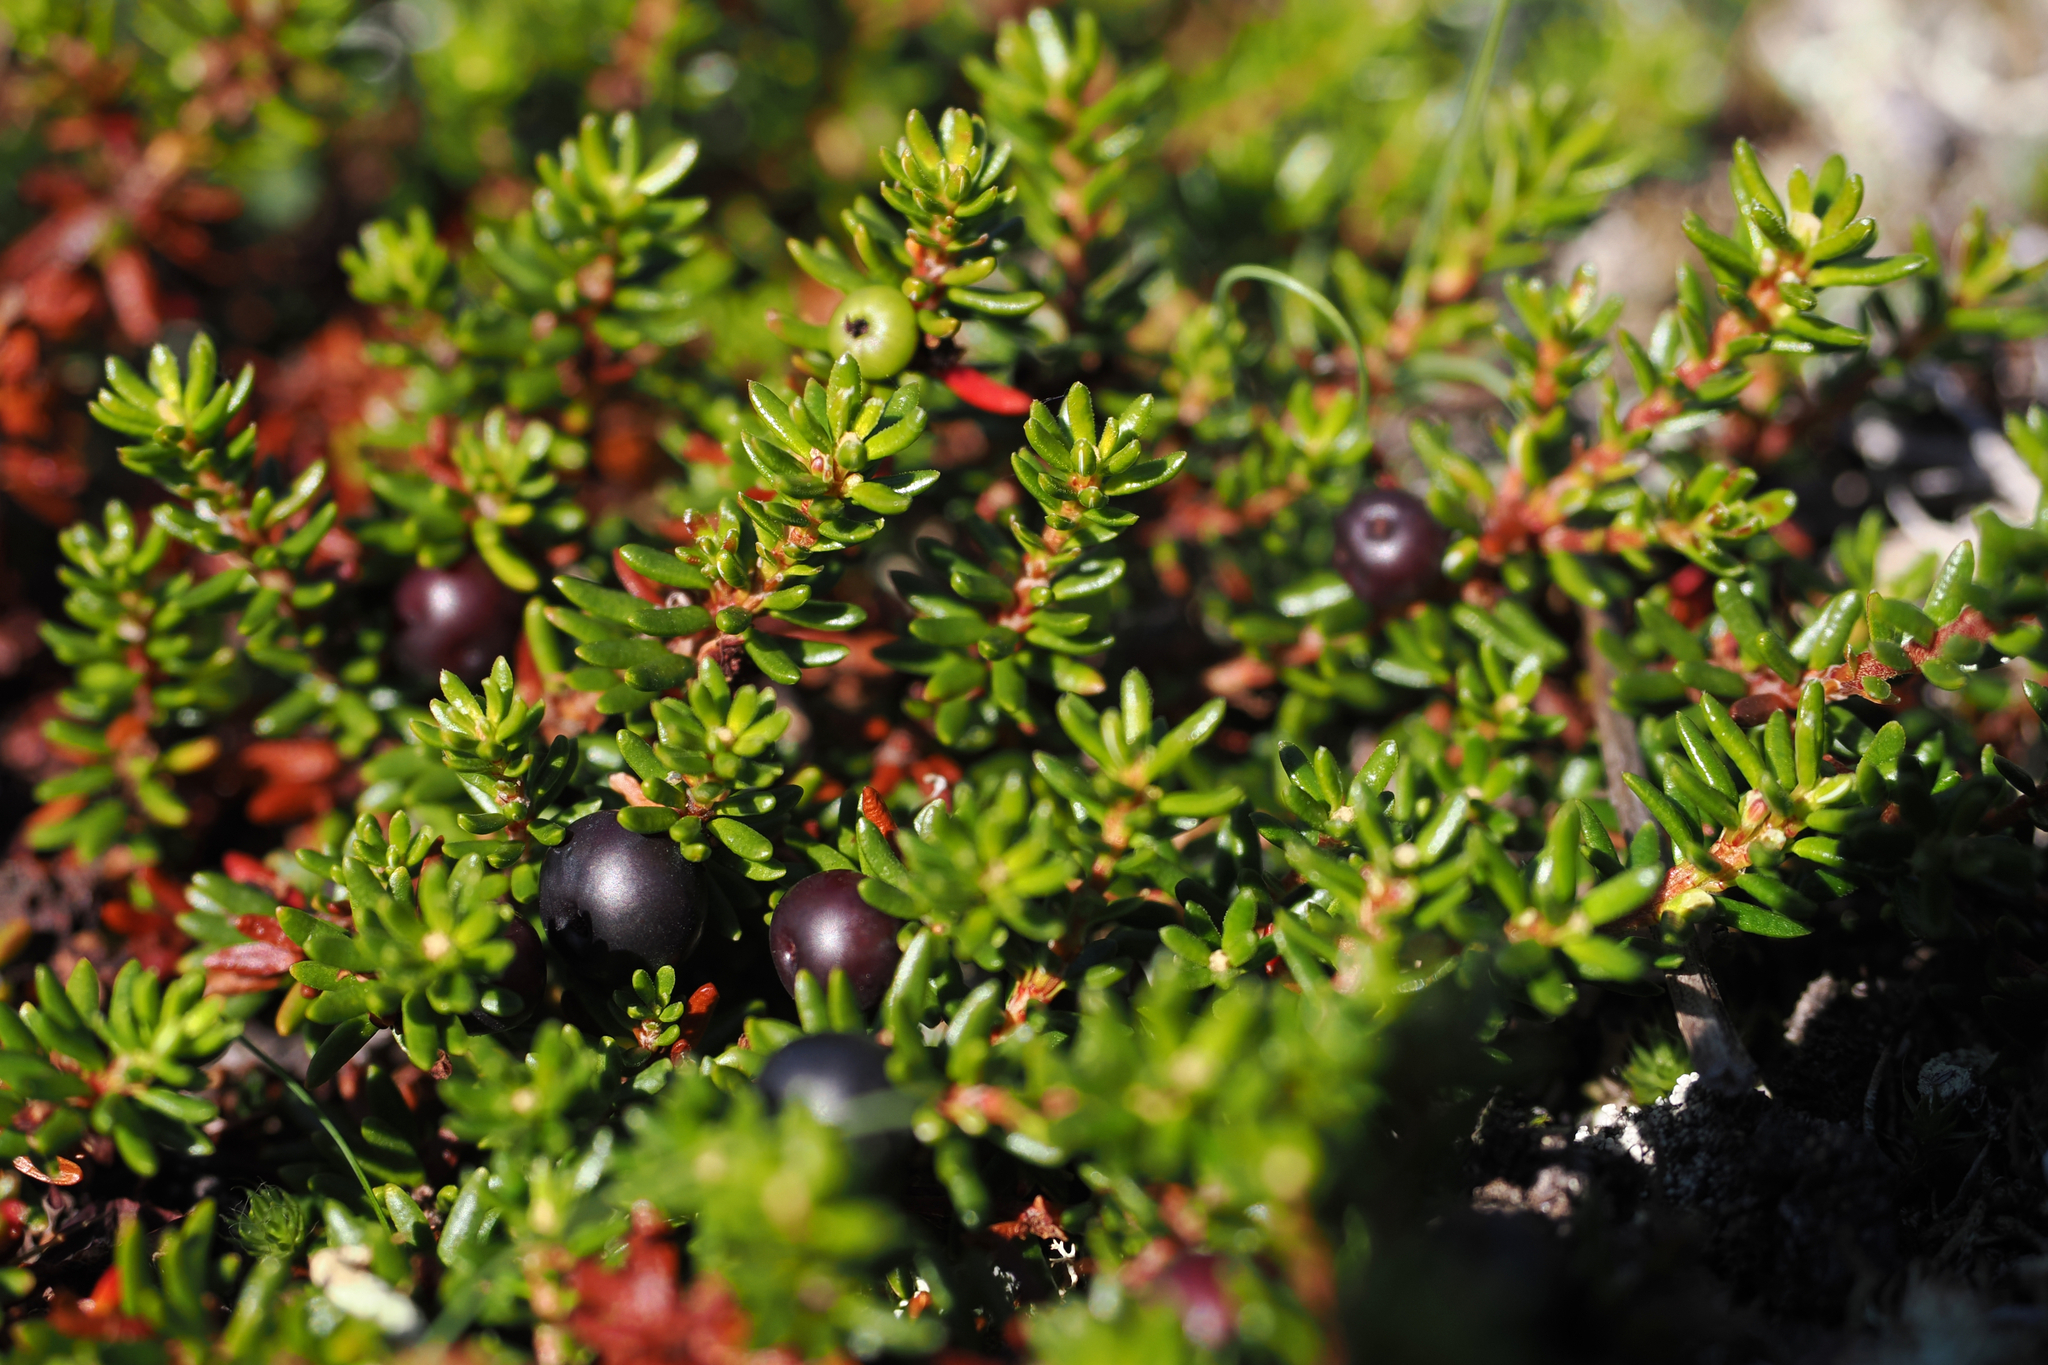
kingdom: Plantae
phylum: Tracheophyta
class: Magnoliopsida
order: Ericales
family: Ericaceae
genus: Empetrum
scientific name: Empetrum hermaphroditum
